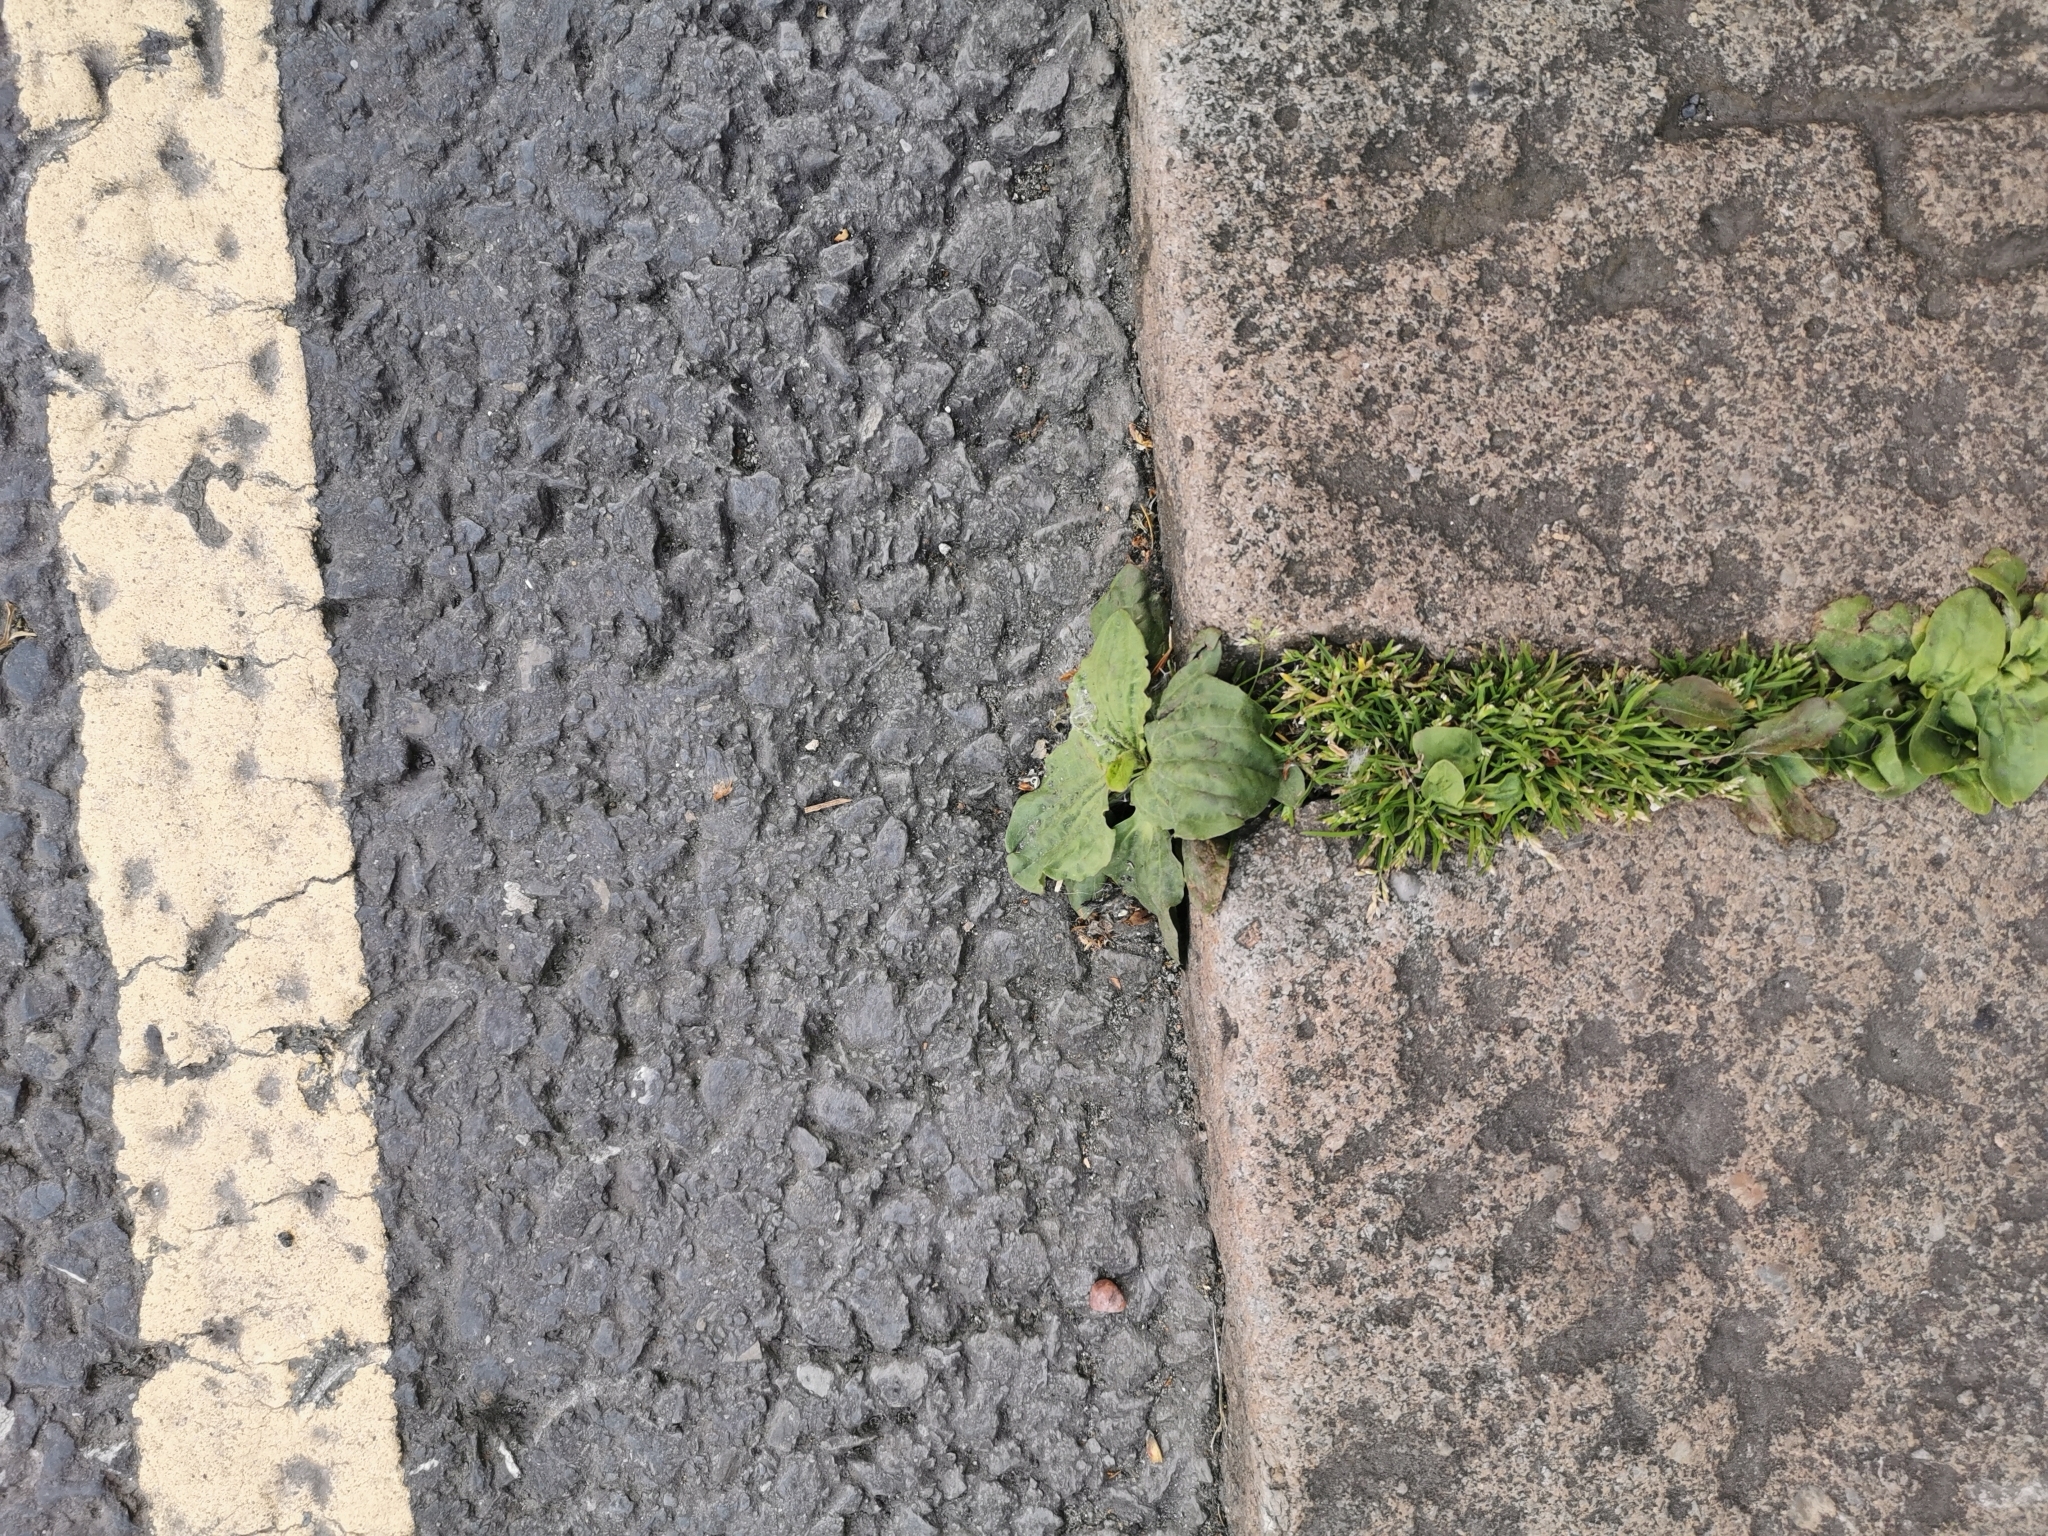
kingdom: Plantae
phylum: Tracheophyta
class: Magnoliopsida
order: Lamiales
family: Plantaginaceae
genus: Plantago
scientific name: Plantago major
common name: Common plantain
